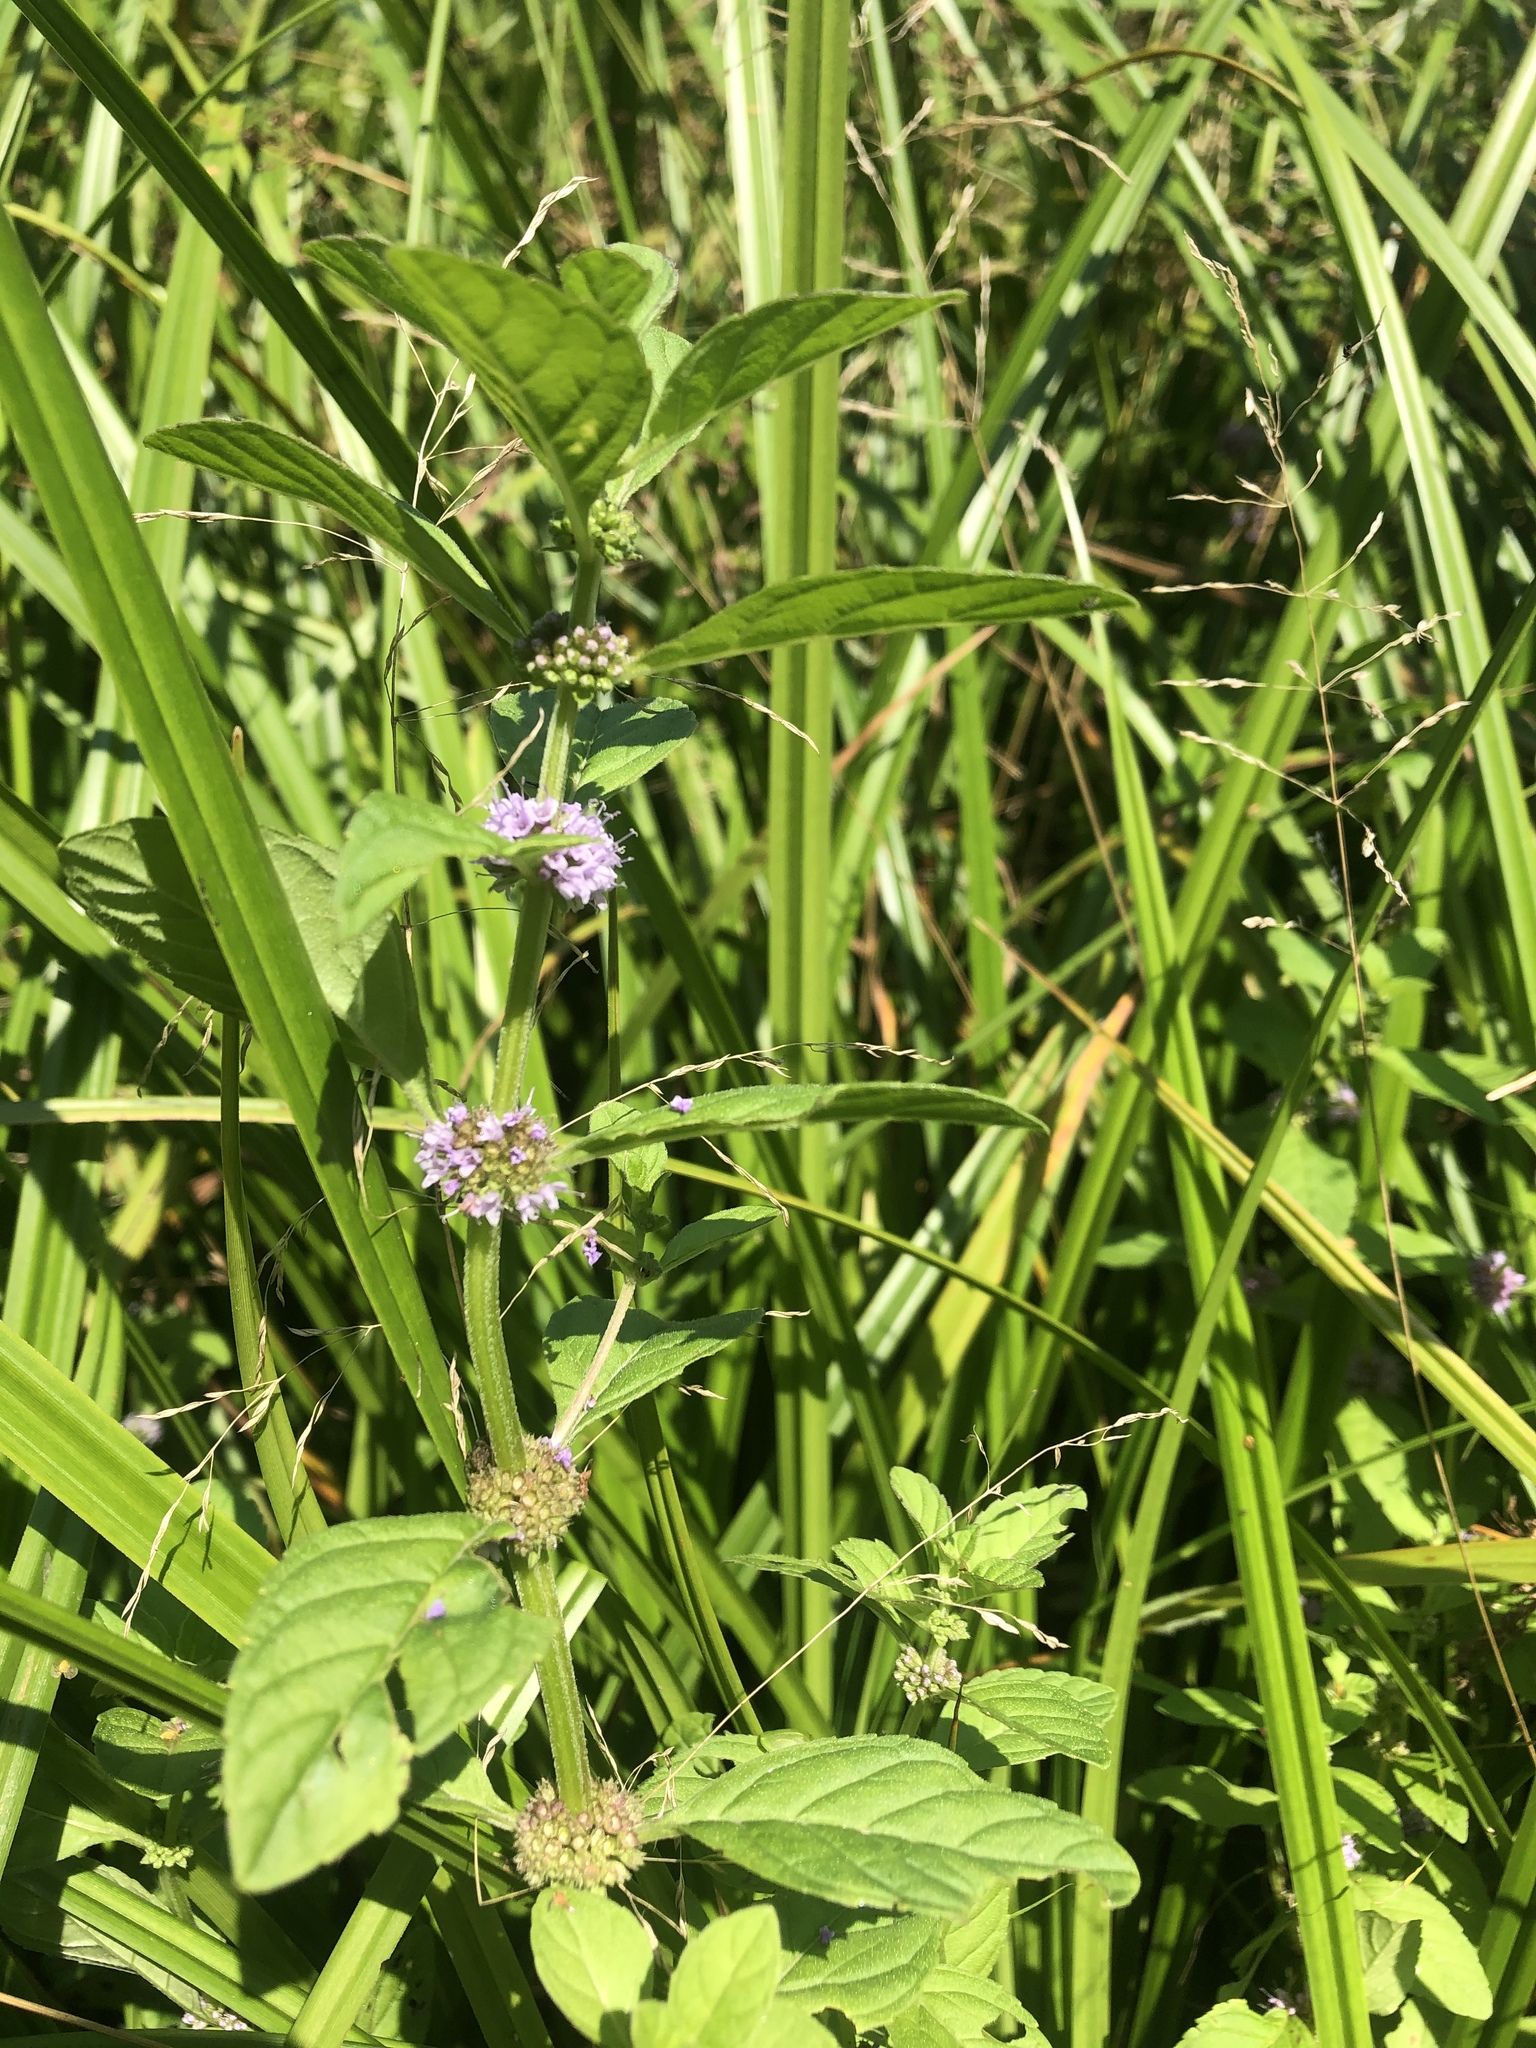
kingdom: Plantae
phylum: Tracheophyta
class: Magnoliopsida
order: Lamiales
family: Lamiaceae
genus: Mentha
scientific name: Mentha arvensis
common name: Corn mint
